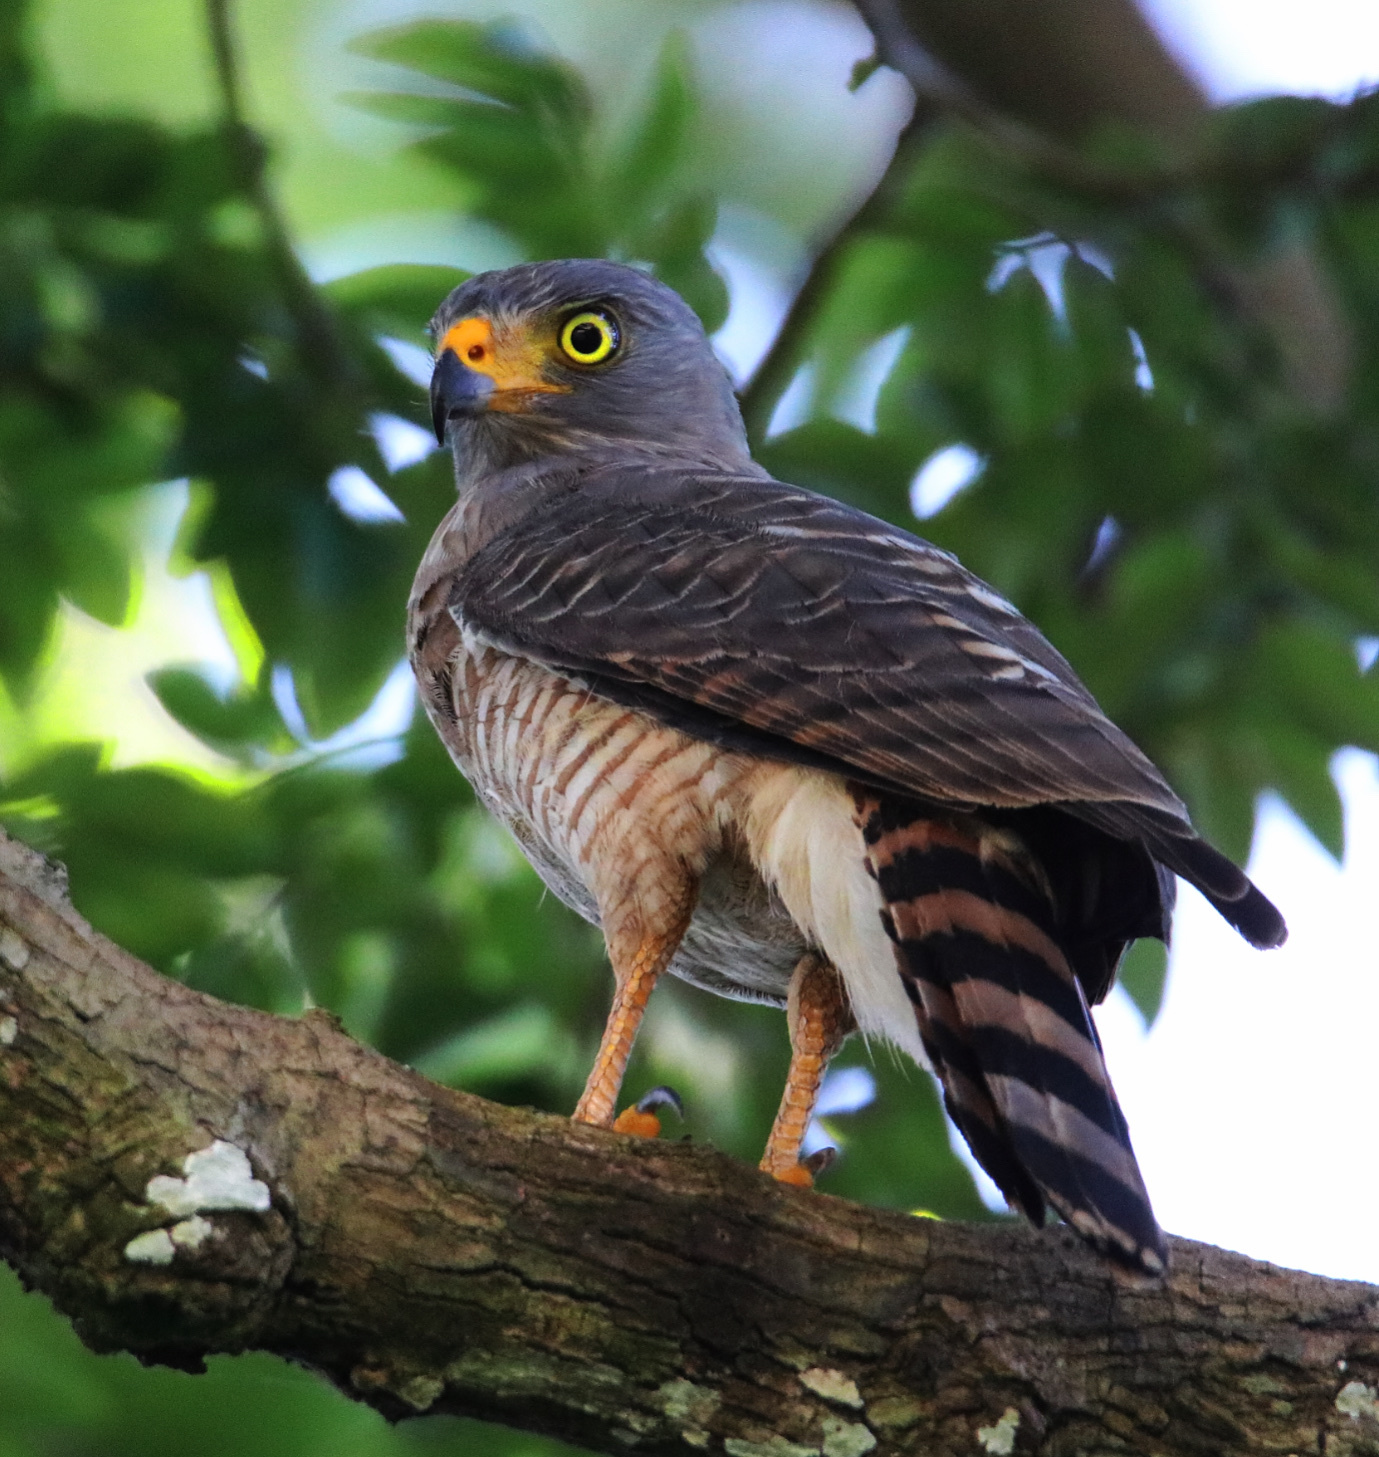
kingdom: Animalia
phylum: Chordata
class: Aves
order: Accipitriformes
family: Accipitridae
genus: Rupornis
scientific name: Rupornis magnirostris
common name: Roadside hawk
